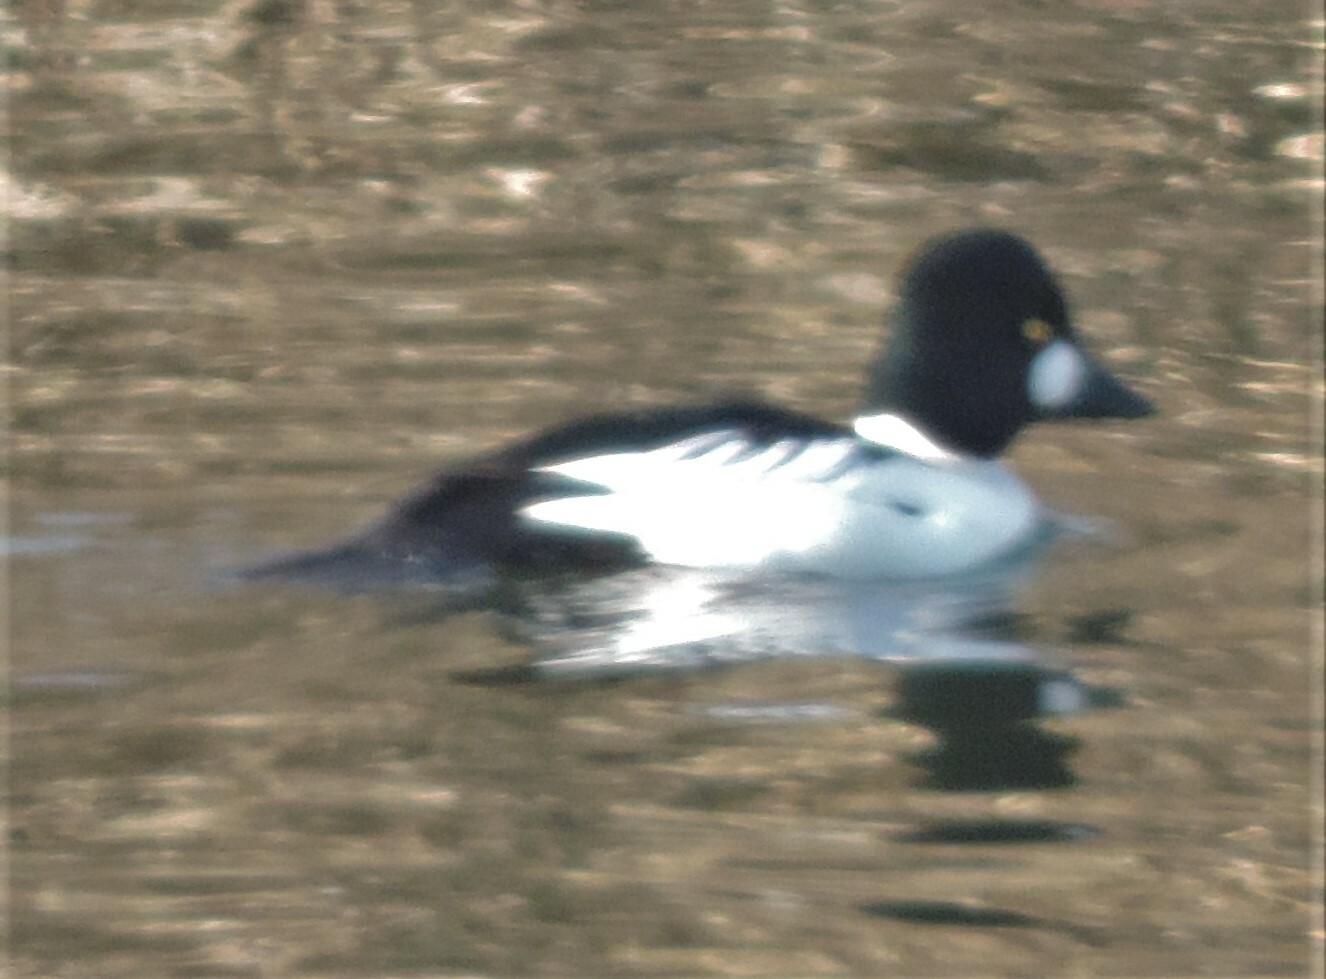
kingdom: Animalia
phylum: Chordata
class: Aves
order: Anseriformes
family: Anatidae
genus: Bucephala
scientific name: Bucephala clangula
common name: Common goldeneye
